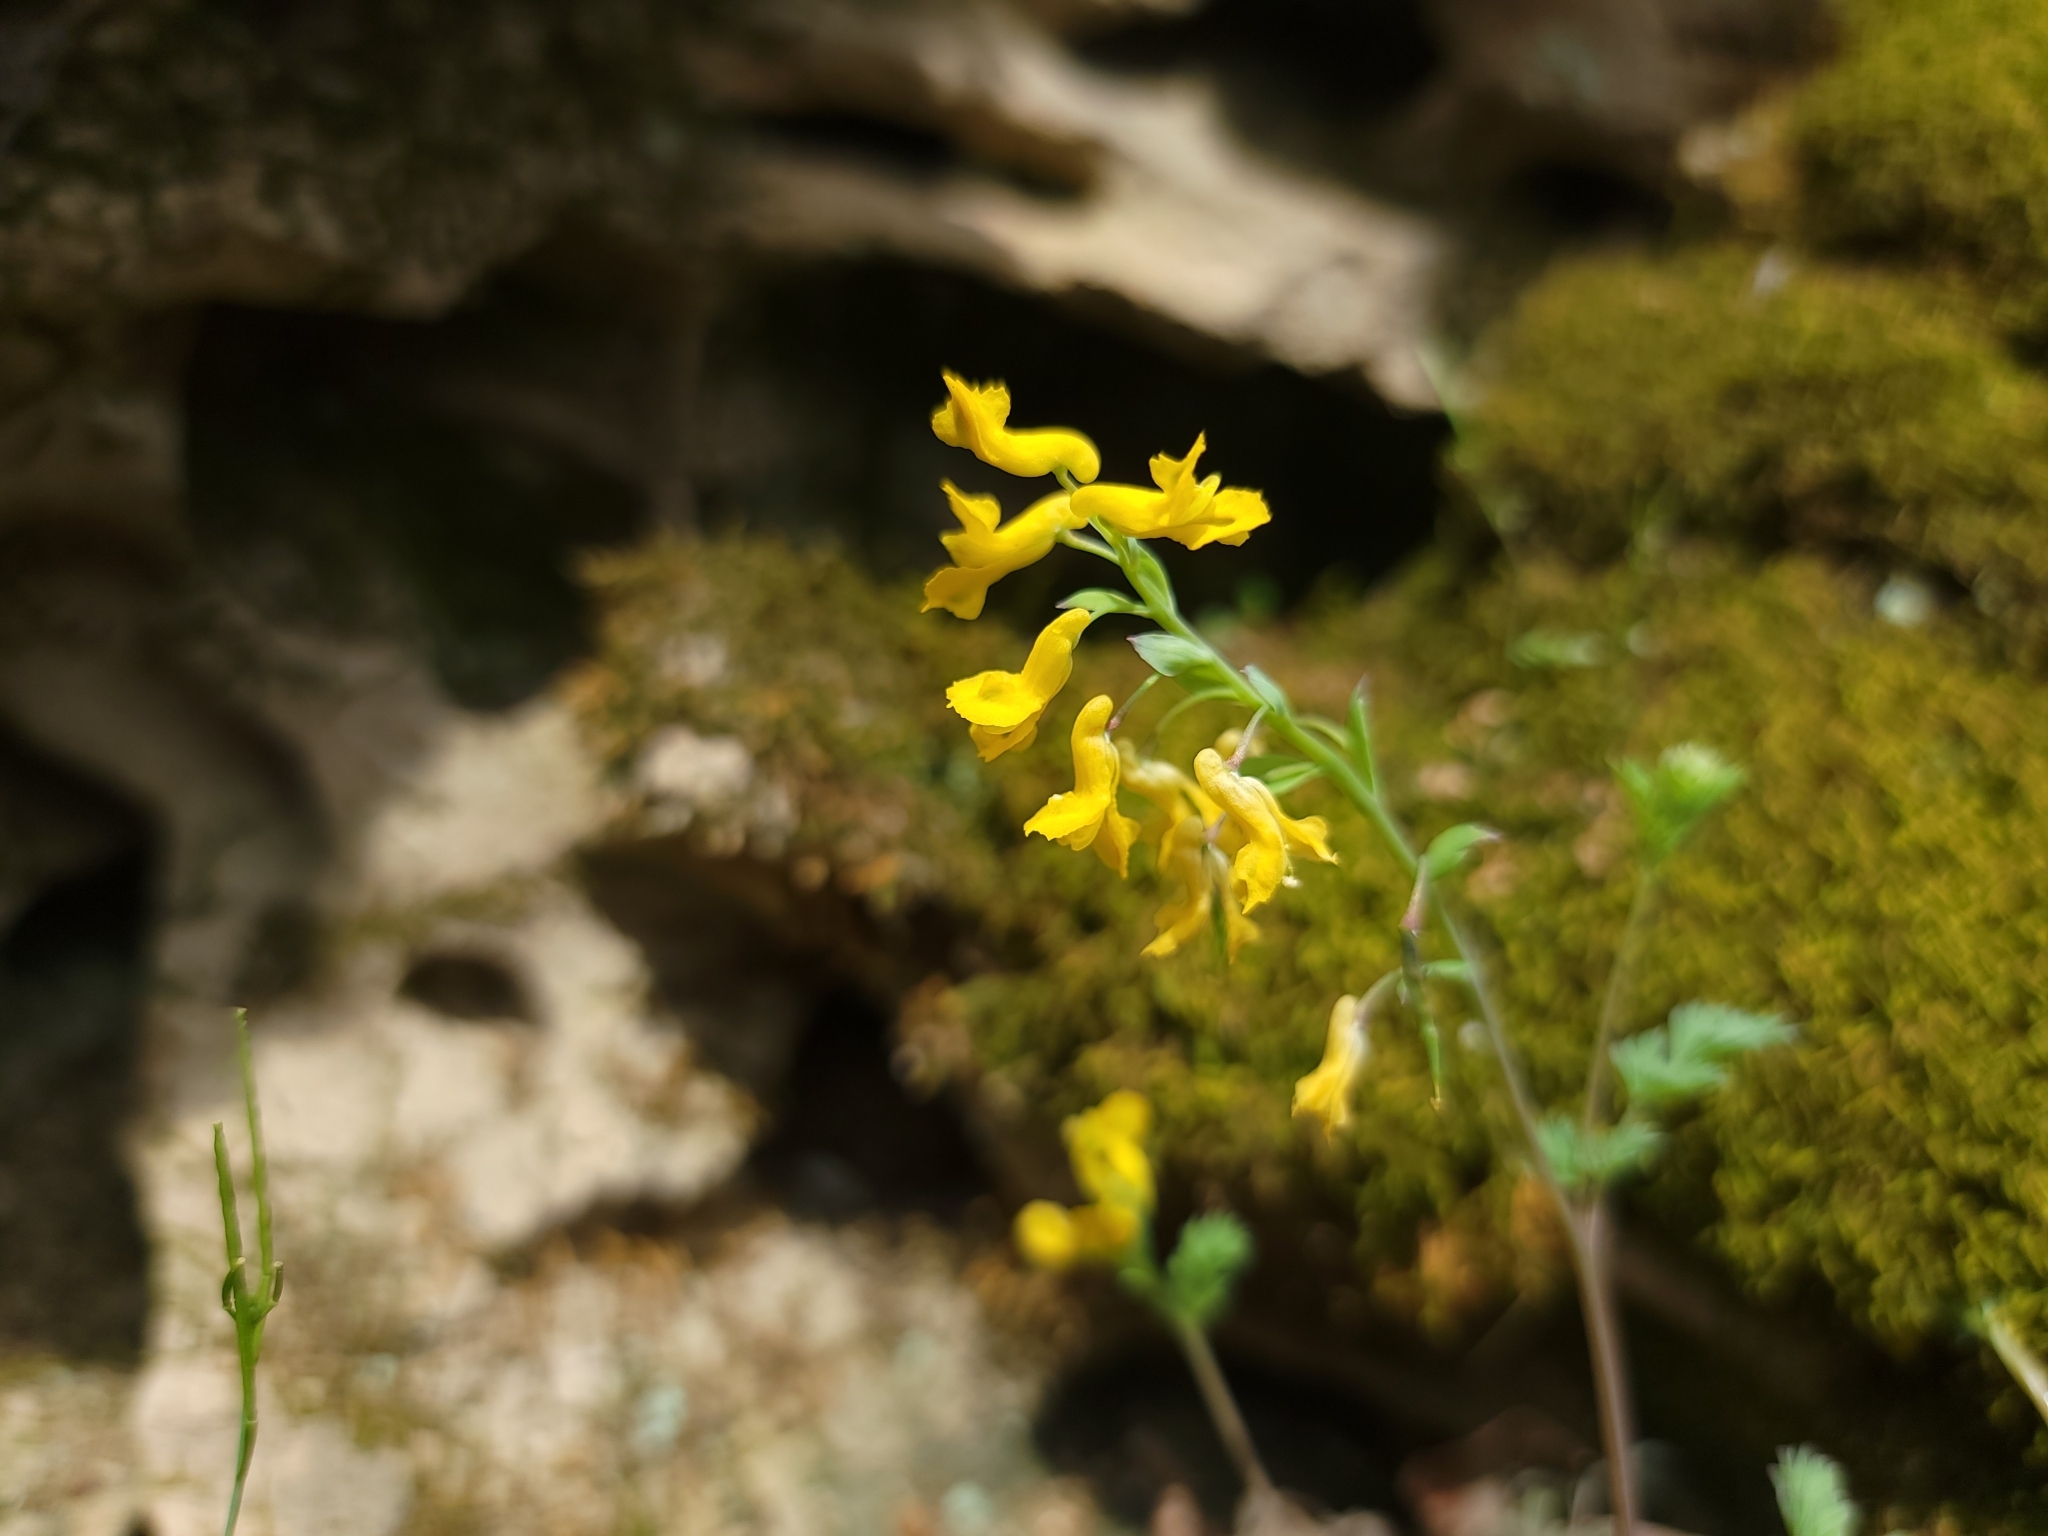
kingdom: Plantae
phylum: Tracheophyta
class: Magnoliopsida
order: Ranunculales
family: Papaveraceae
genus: Corydalis
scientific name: Corydalis flavula
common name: Yellow corydalis
